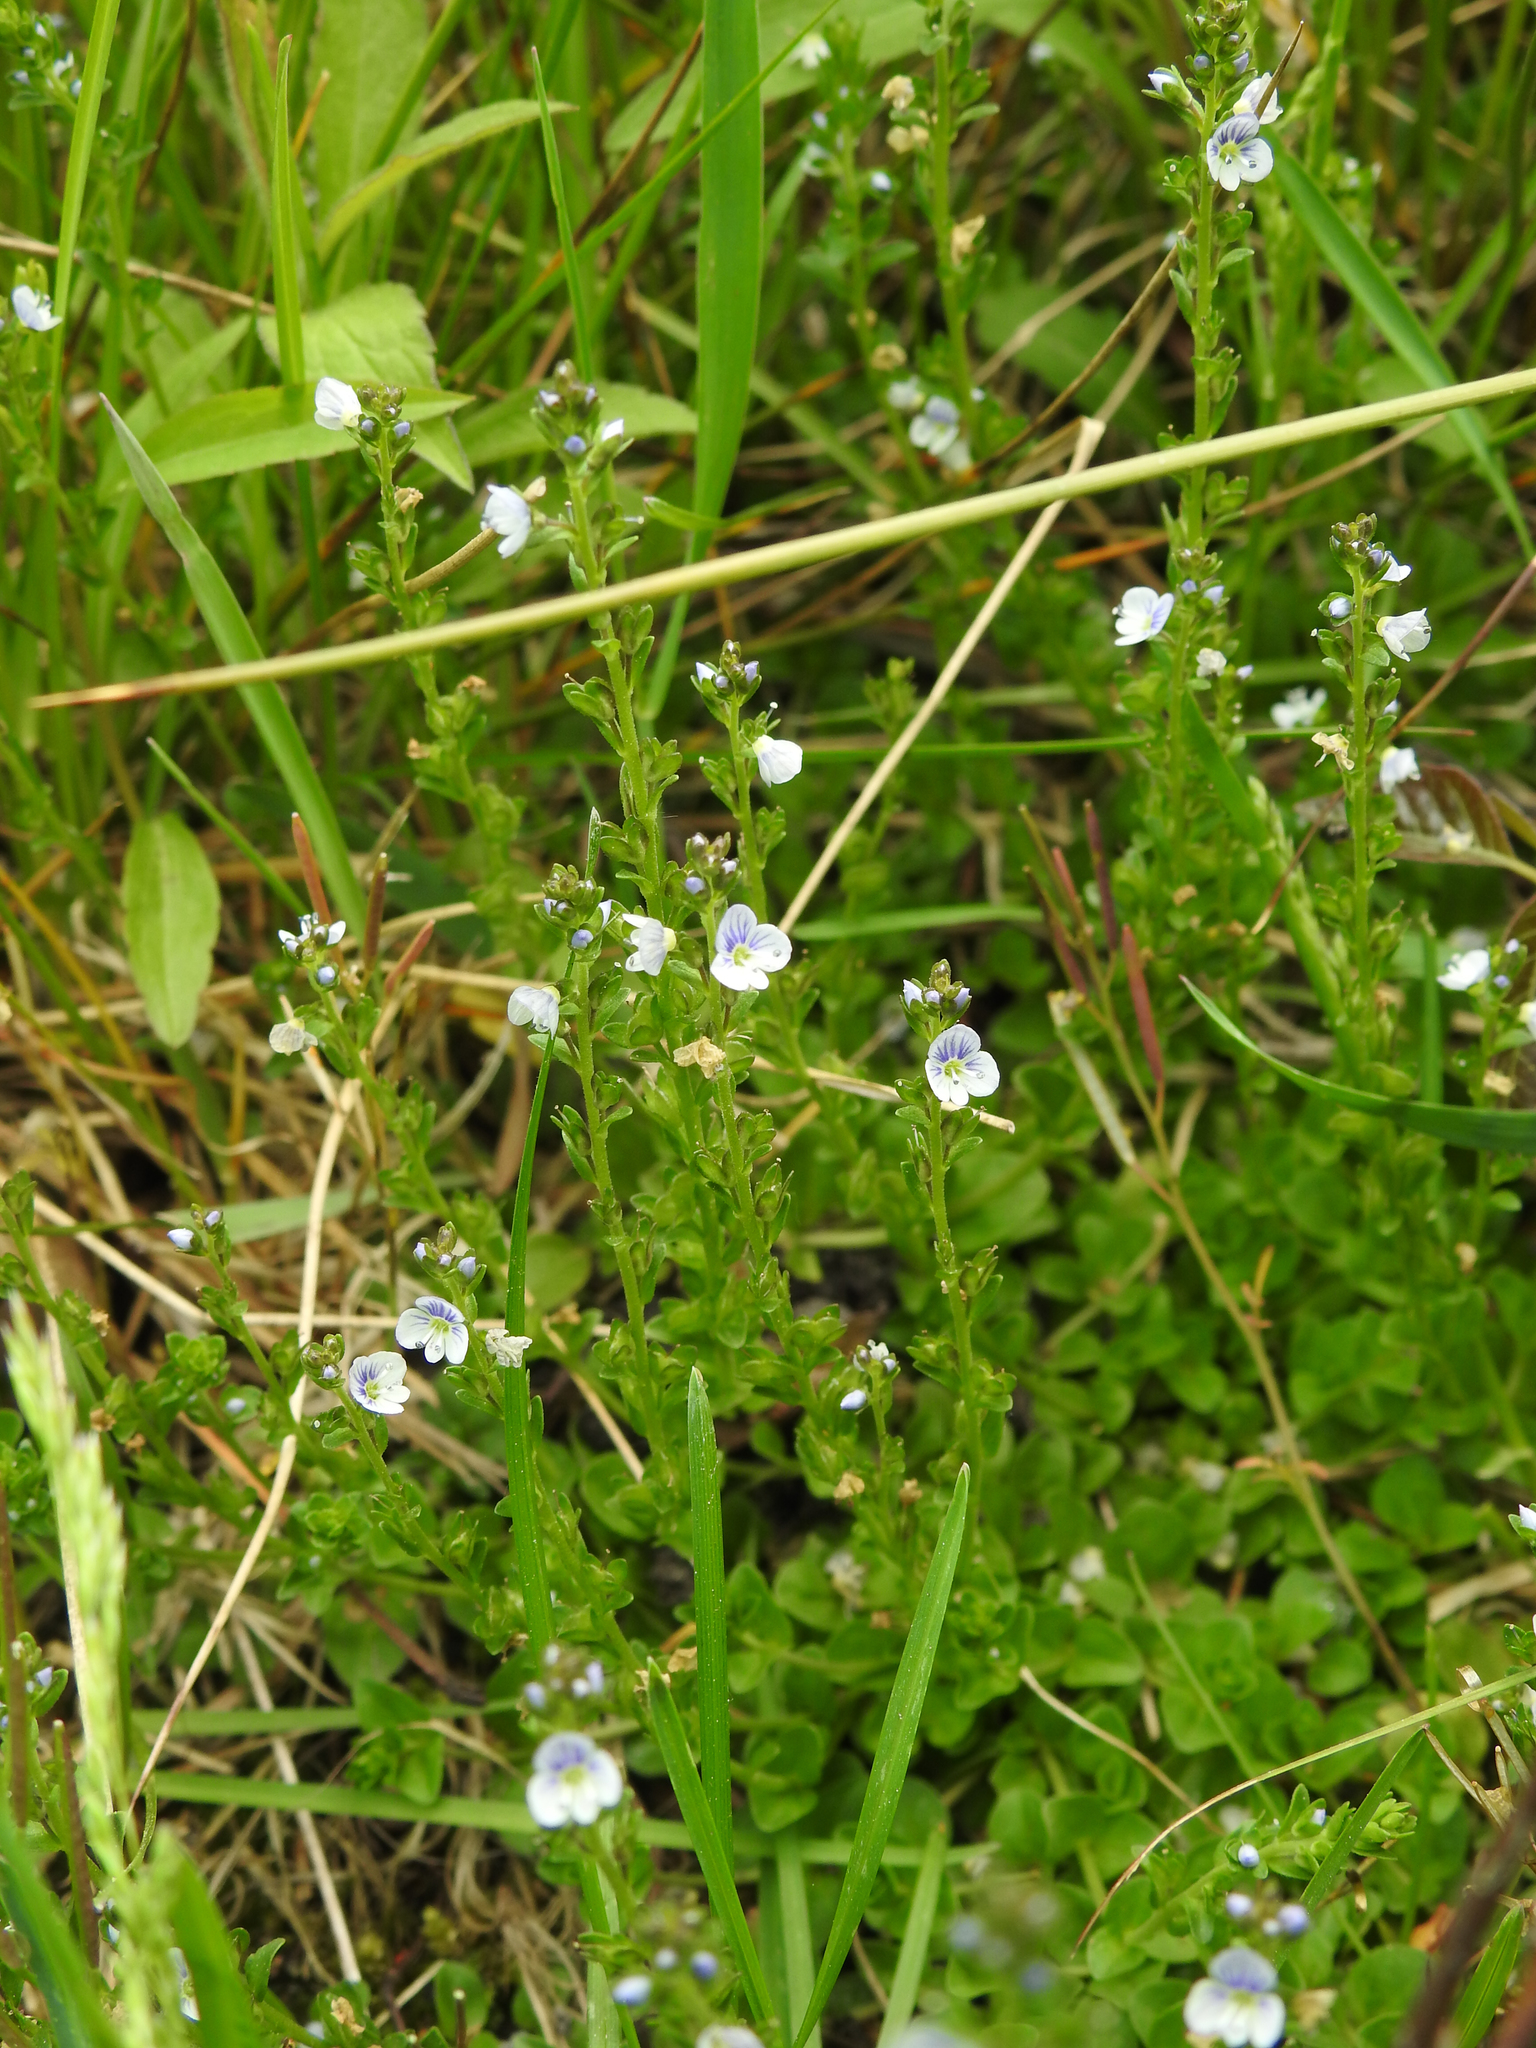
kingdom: Plantae
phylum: Tracheophyta
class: Magnoliopsida
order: Lamiales
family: Plantaginaceae
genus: Veronica
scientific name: Veronica serpyllifolia
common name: Thyme-leaved speedwell
